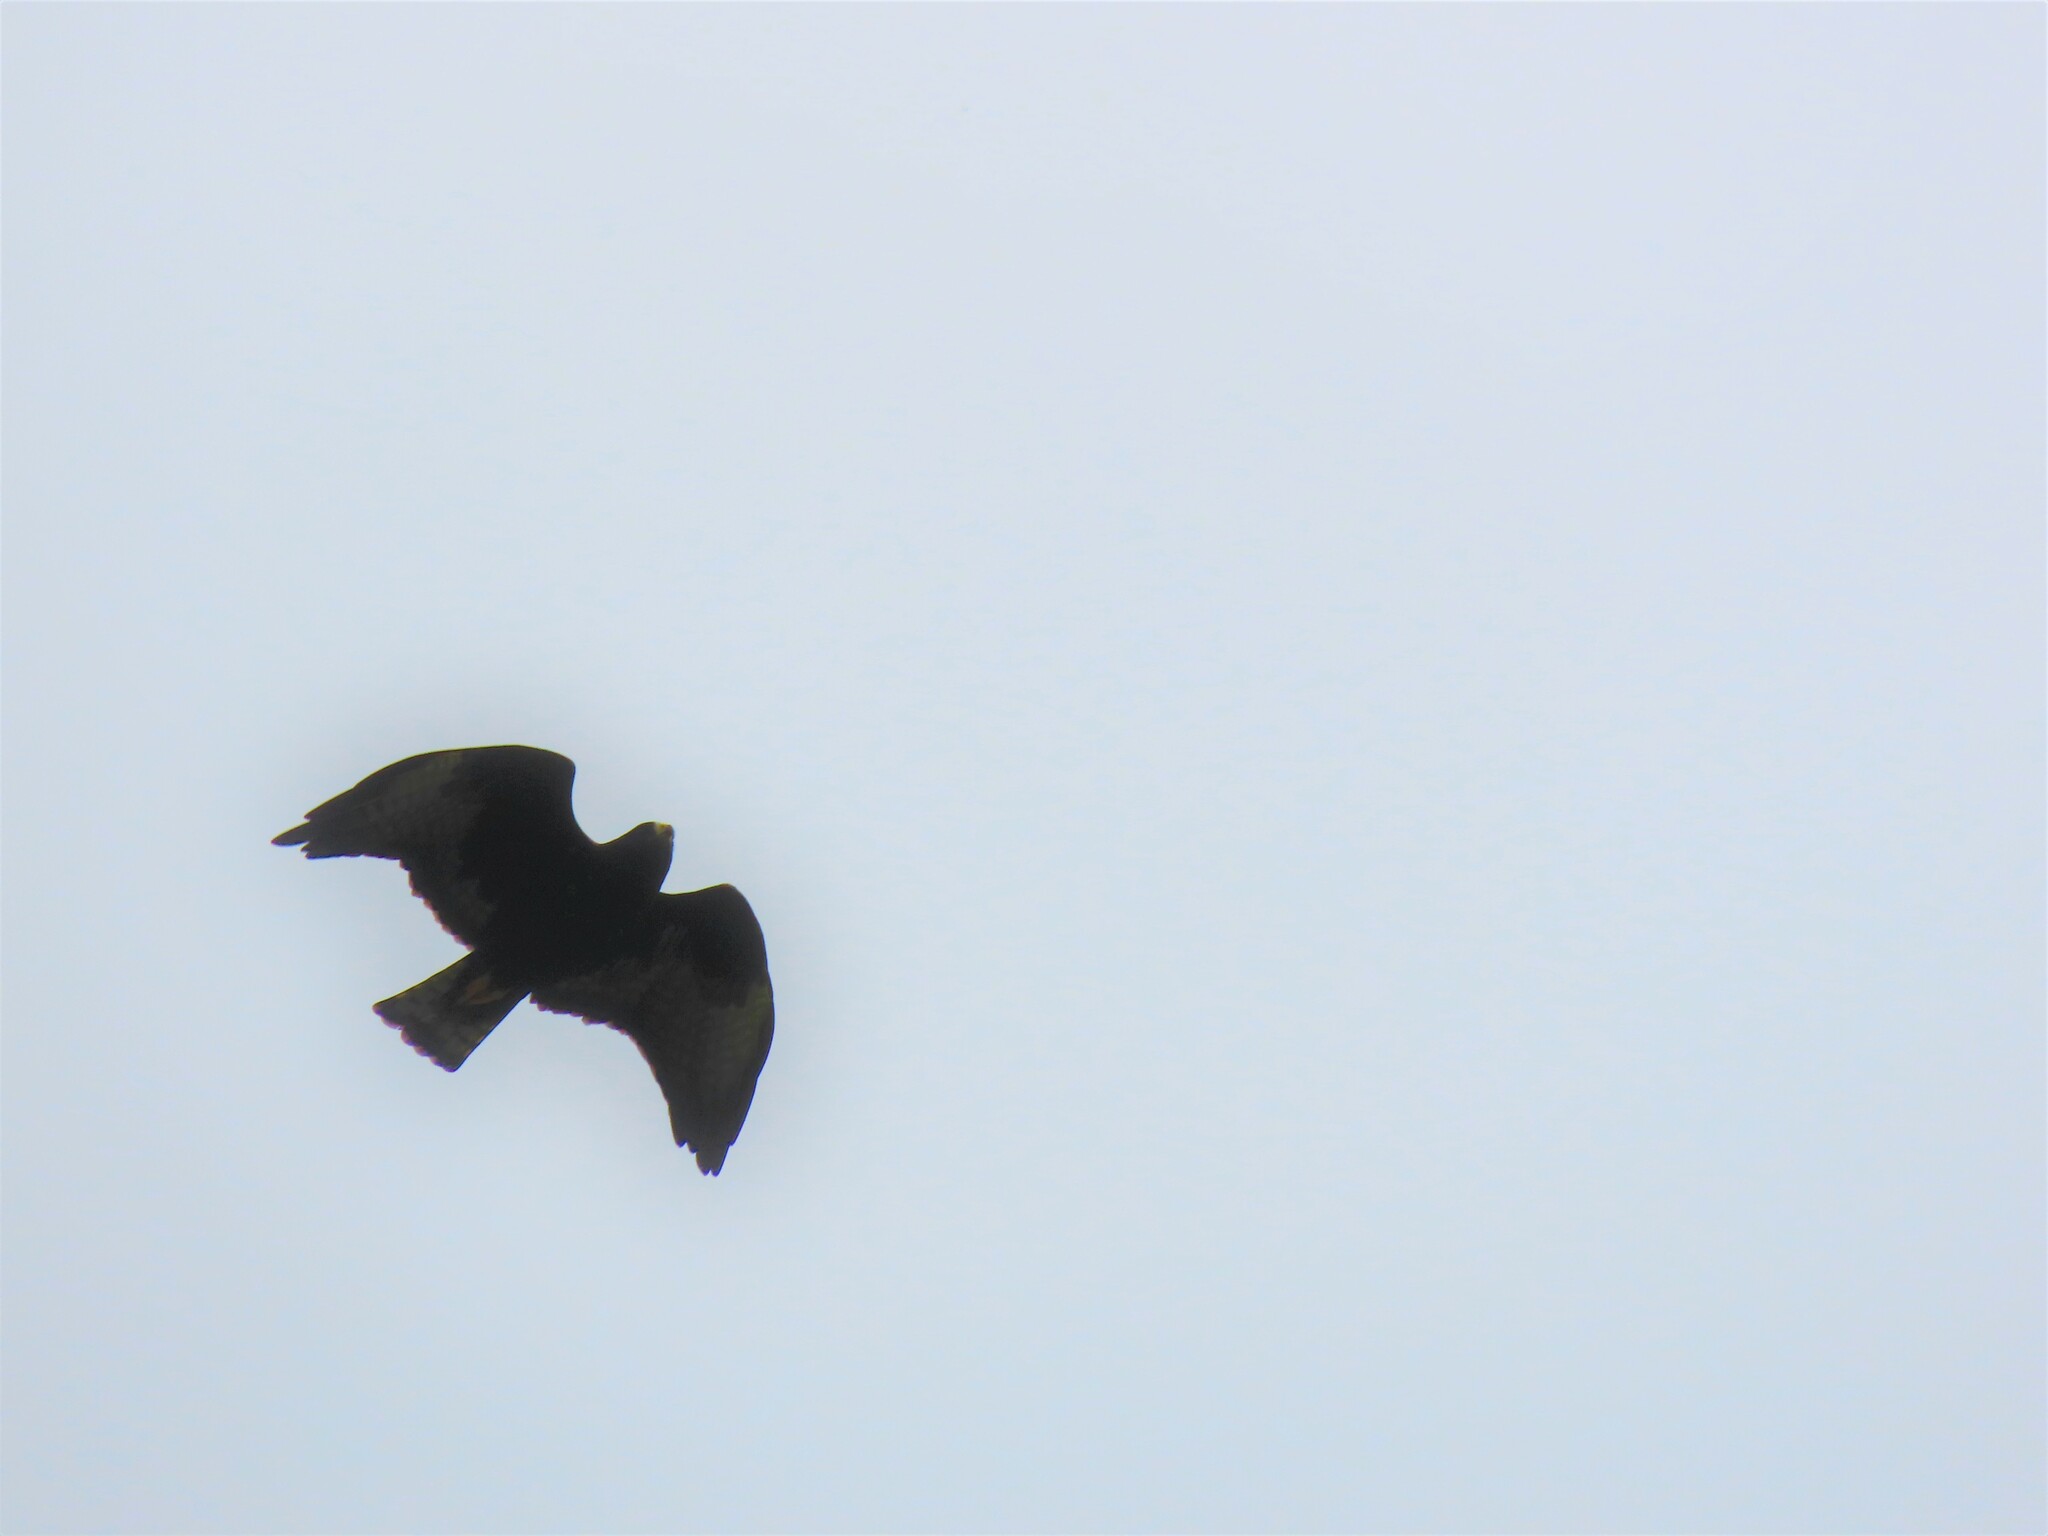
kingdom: Animalia
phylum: Chordata
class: Aves
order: Accipitriformes
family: Accipitridae
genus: Buteo
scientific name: Buteo brachyurus
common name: Short-tailed hawk
